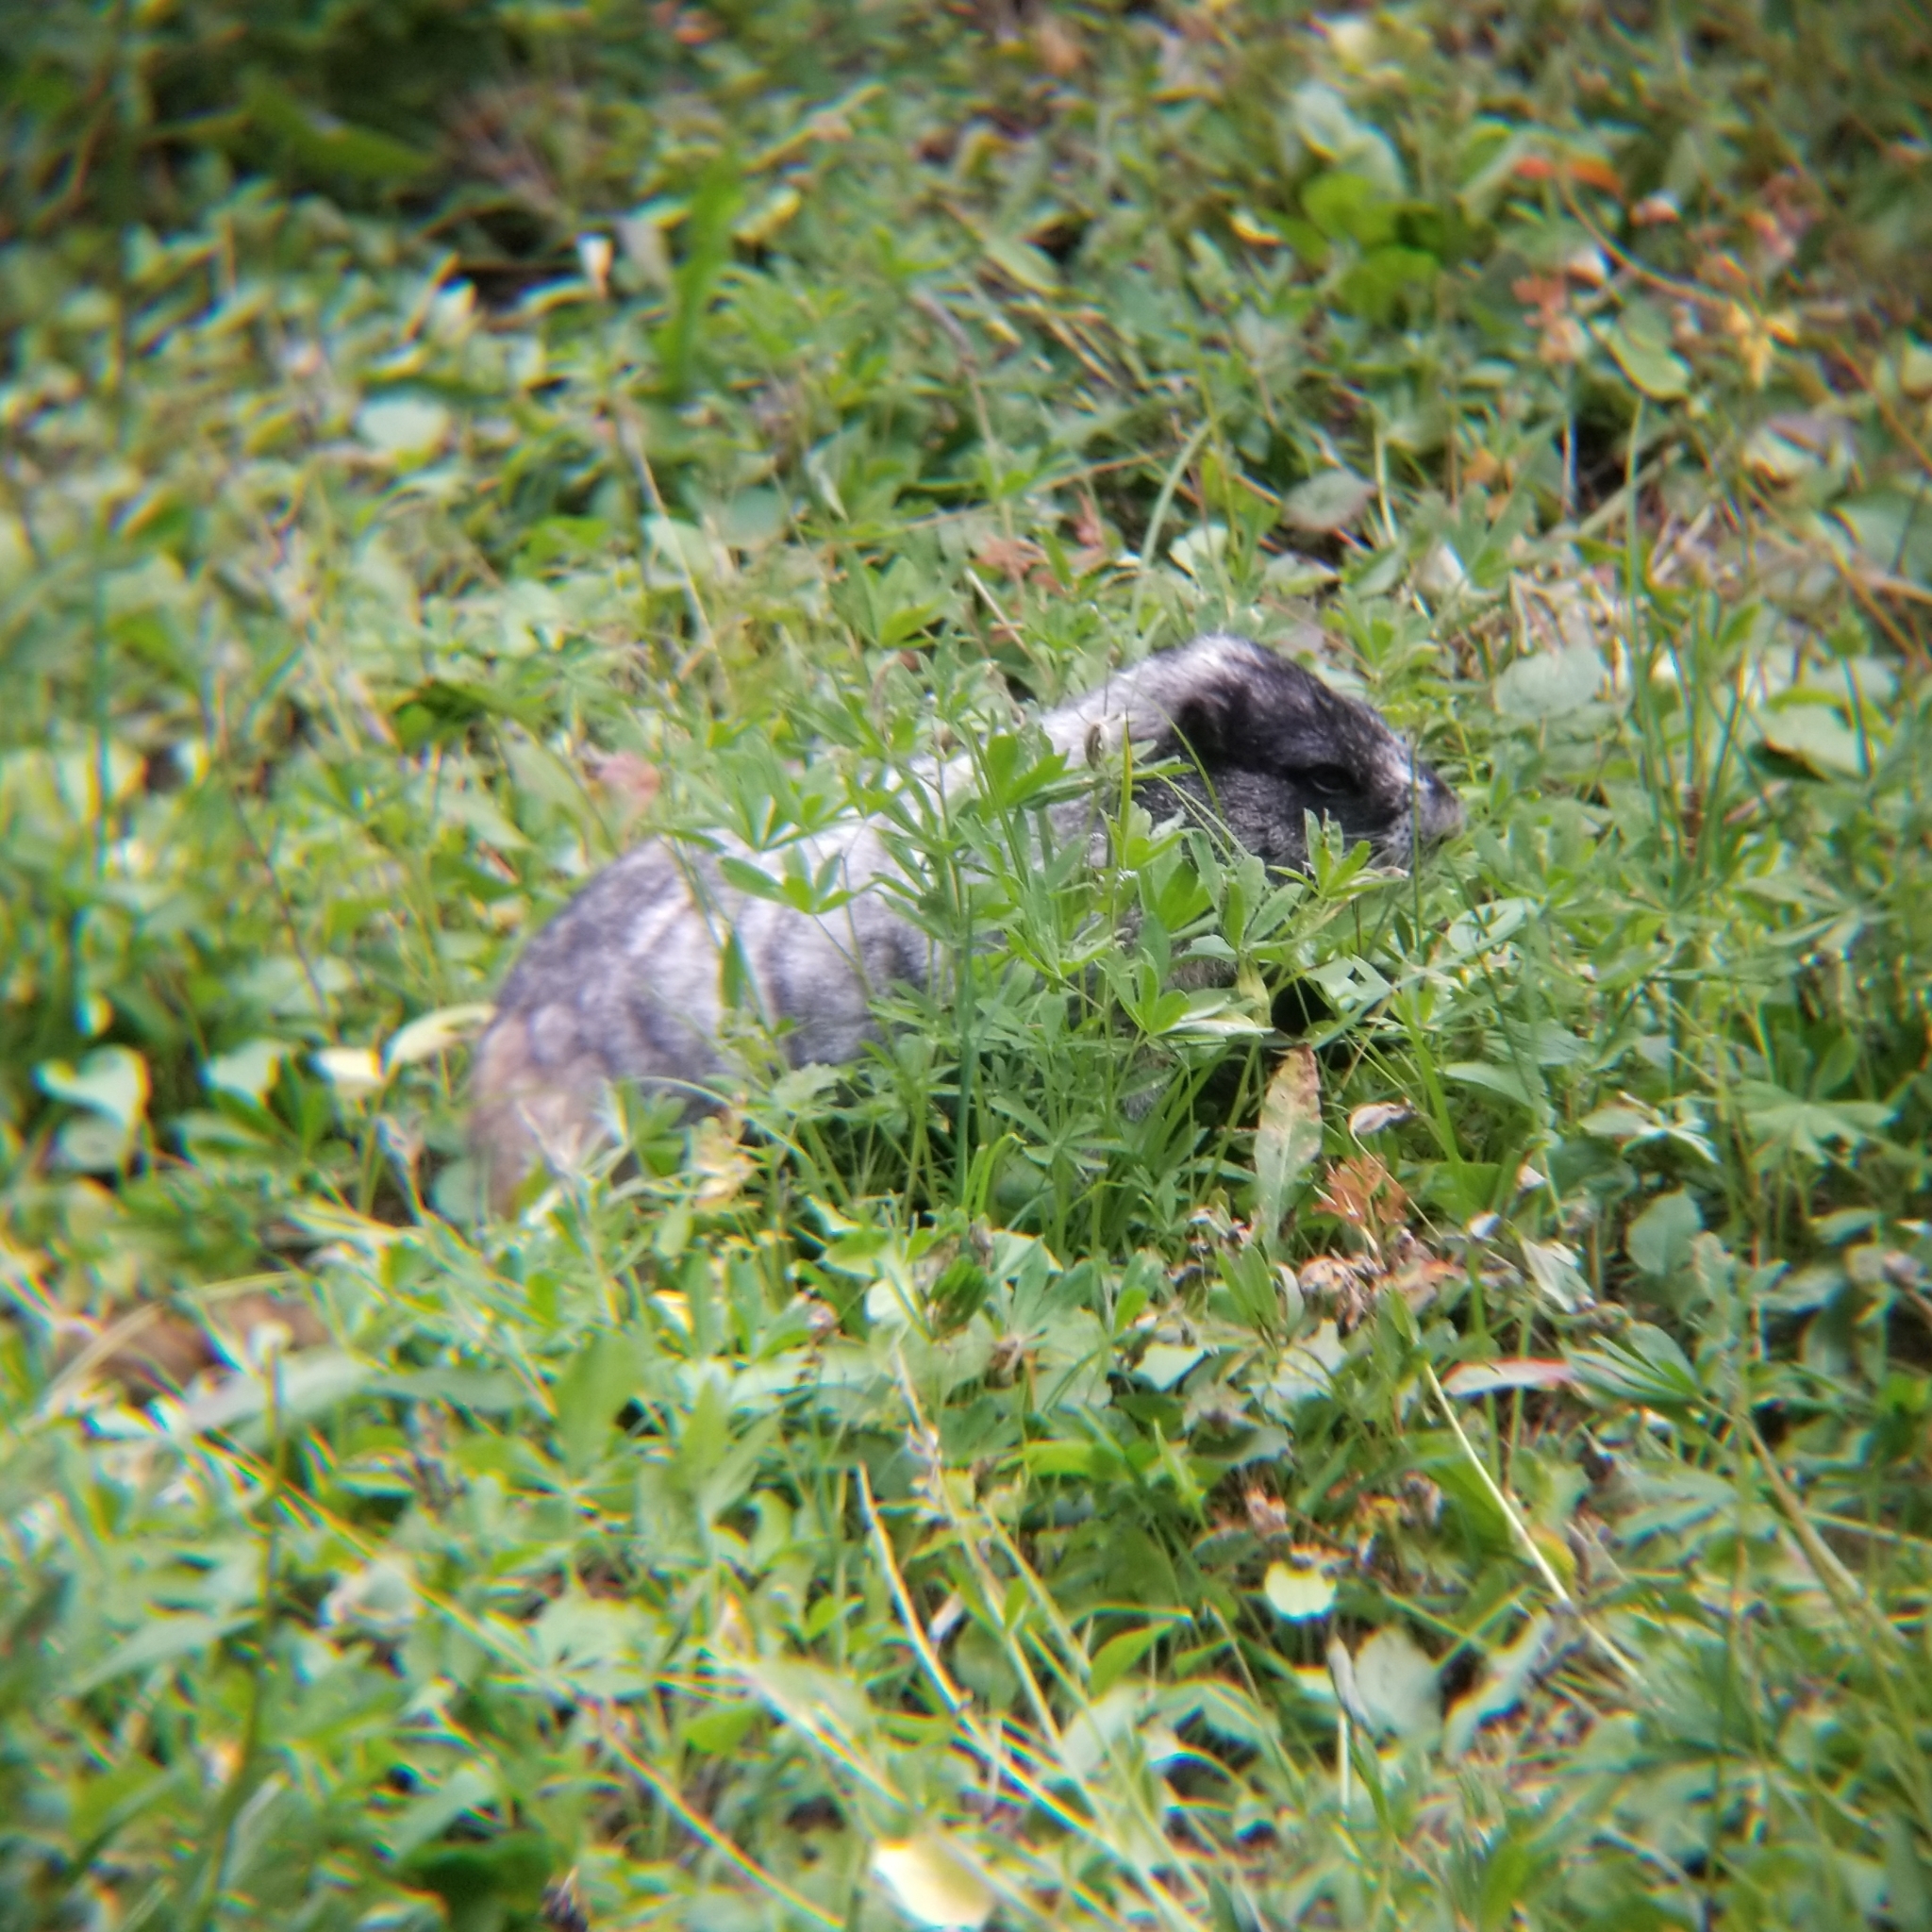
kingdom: Animalia
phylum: Chordata
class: Mammalia
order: Rodentia
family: Sciuridae
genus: Marmota
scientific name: Marmota caligata
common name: Hoary marmot
